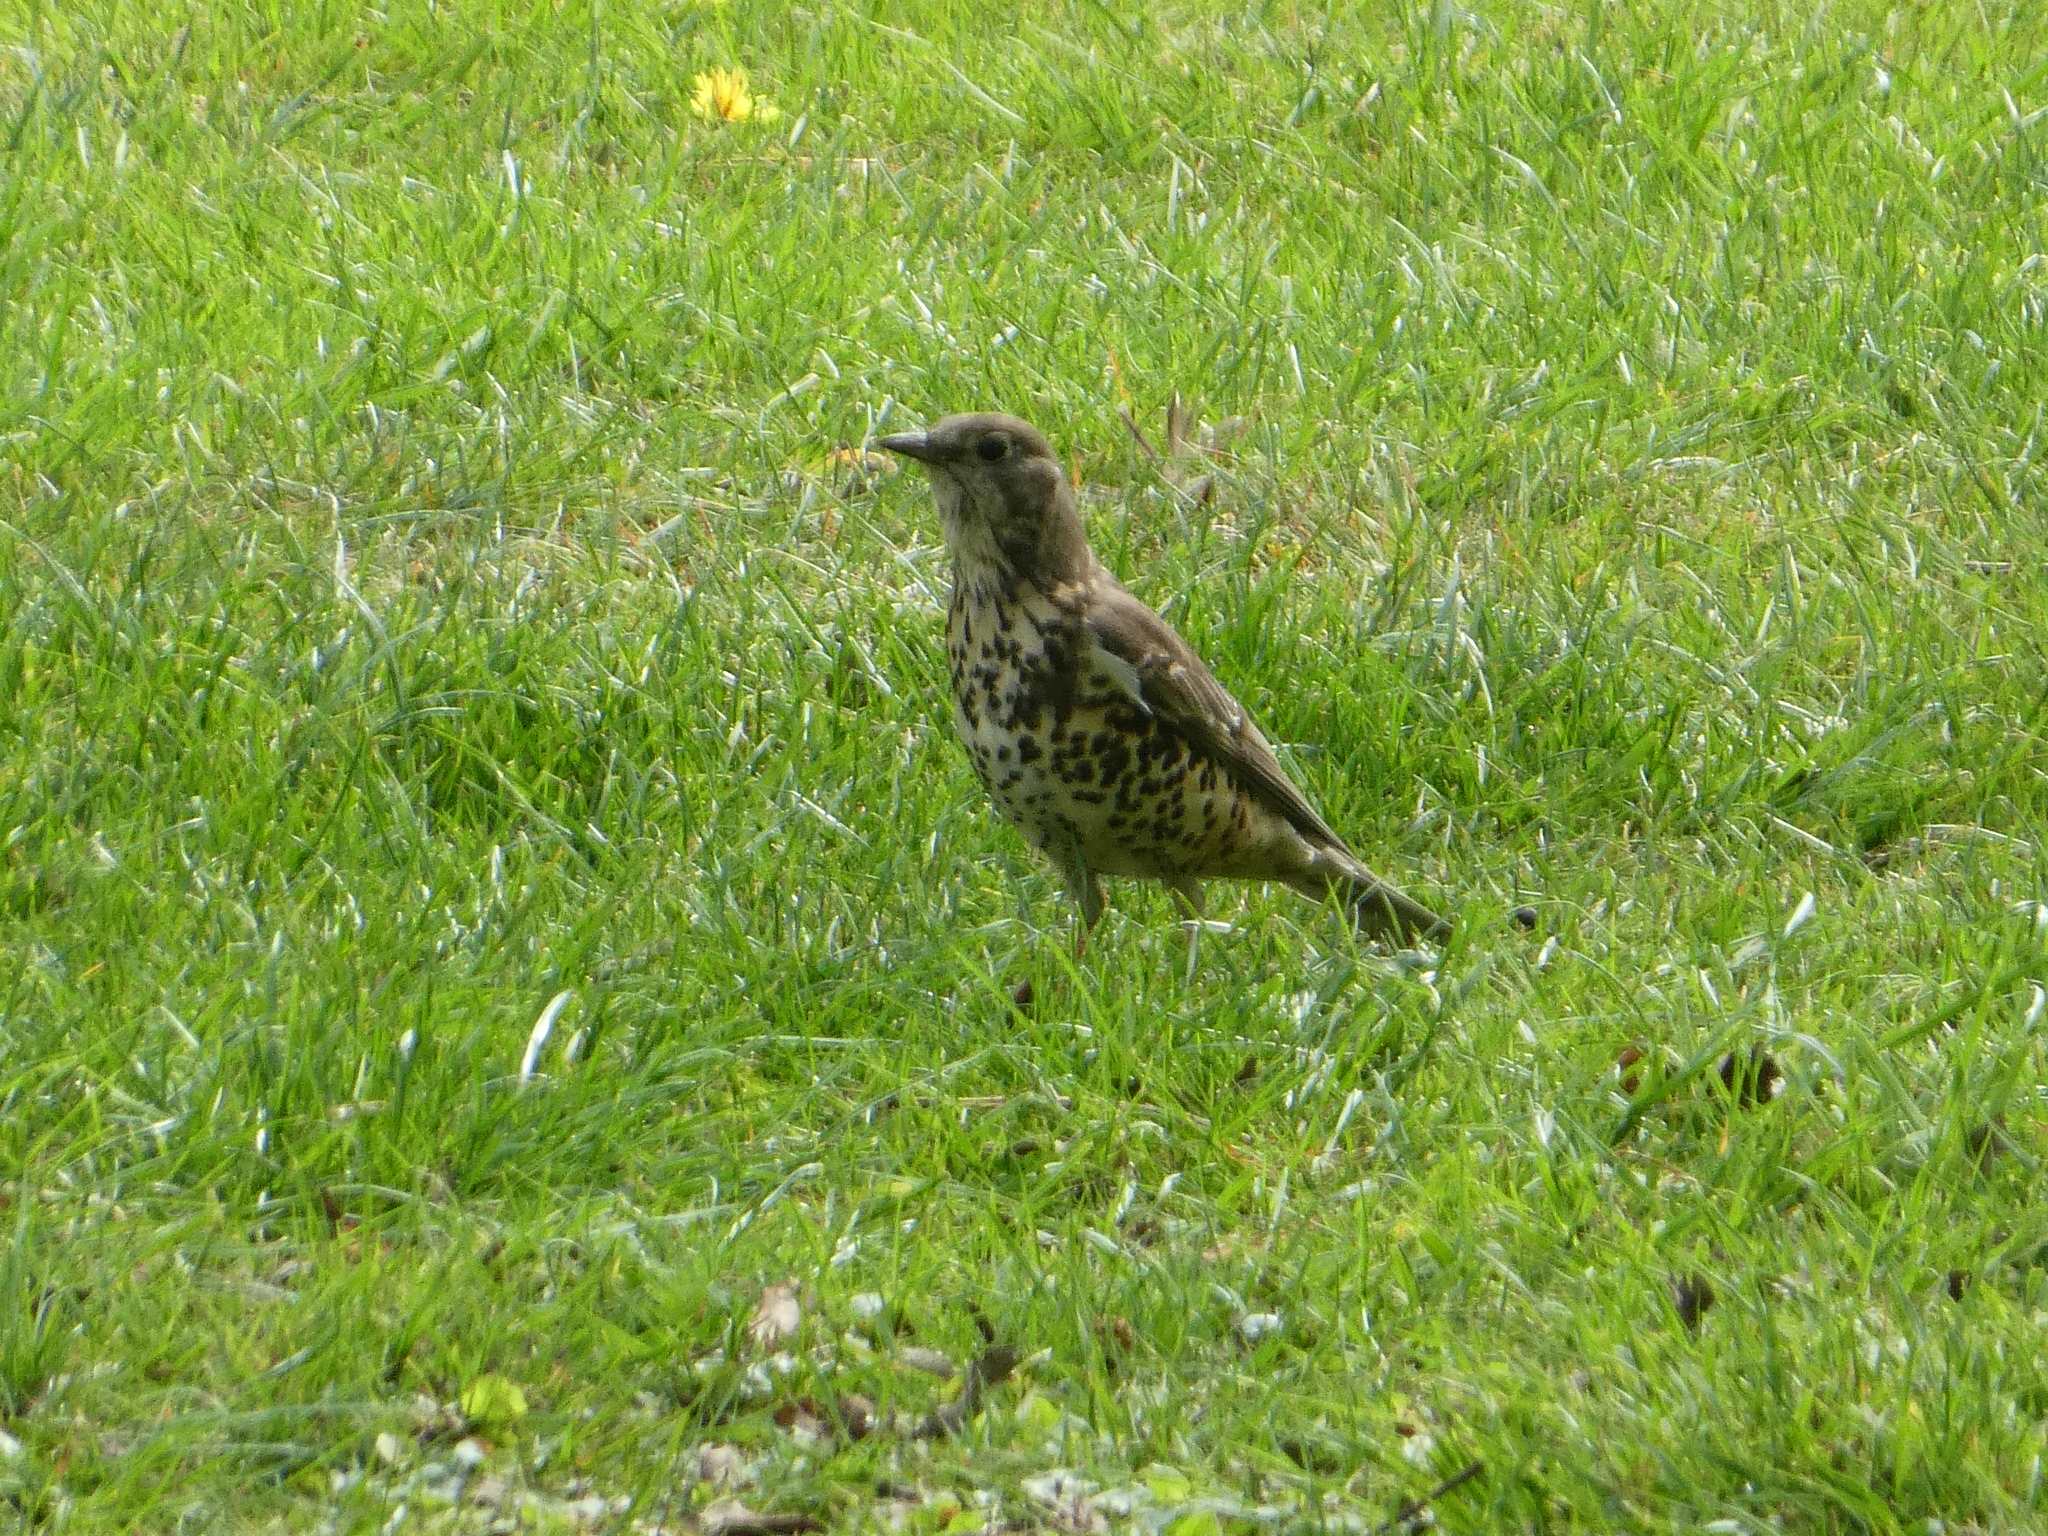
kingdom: Animalia
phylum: Chordata
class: Aves
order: Passeriformes
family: Turdidae
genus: Turdus
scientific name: Turdus viscivorus
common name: Mistle thrush
